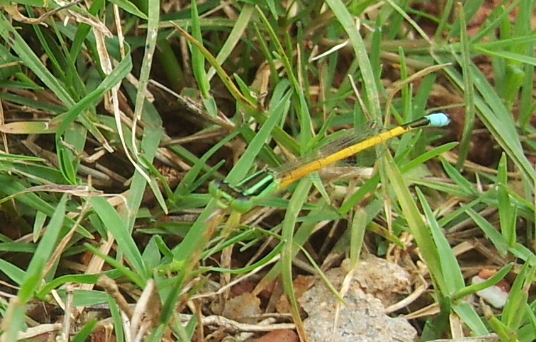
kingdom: Animalia
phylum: Arthropoda
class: Insecta
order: Odonata
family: Coenagrionidae
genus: Ischnura
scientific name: Ischnura rubilio
